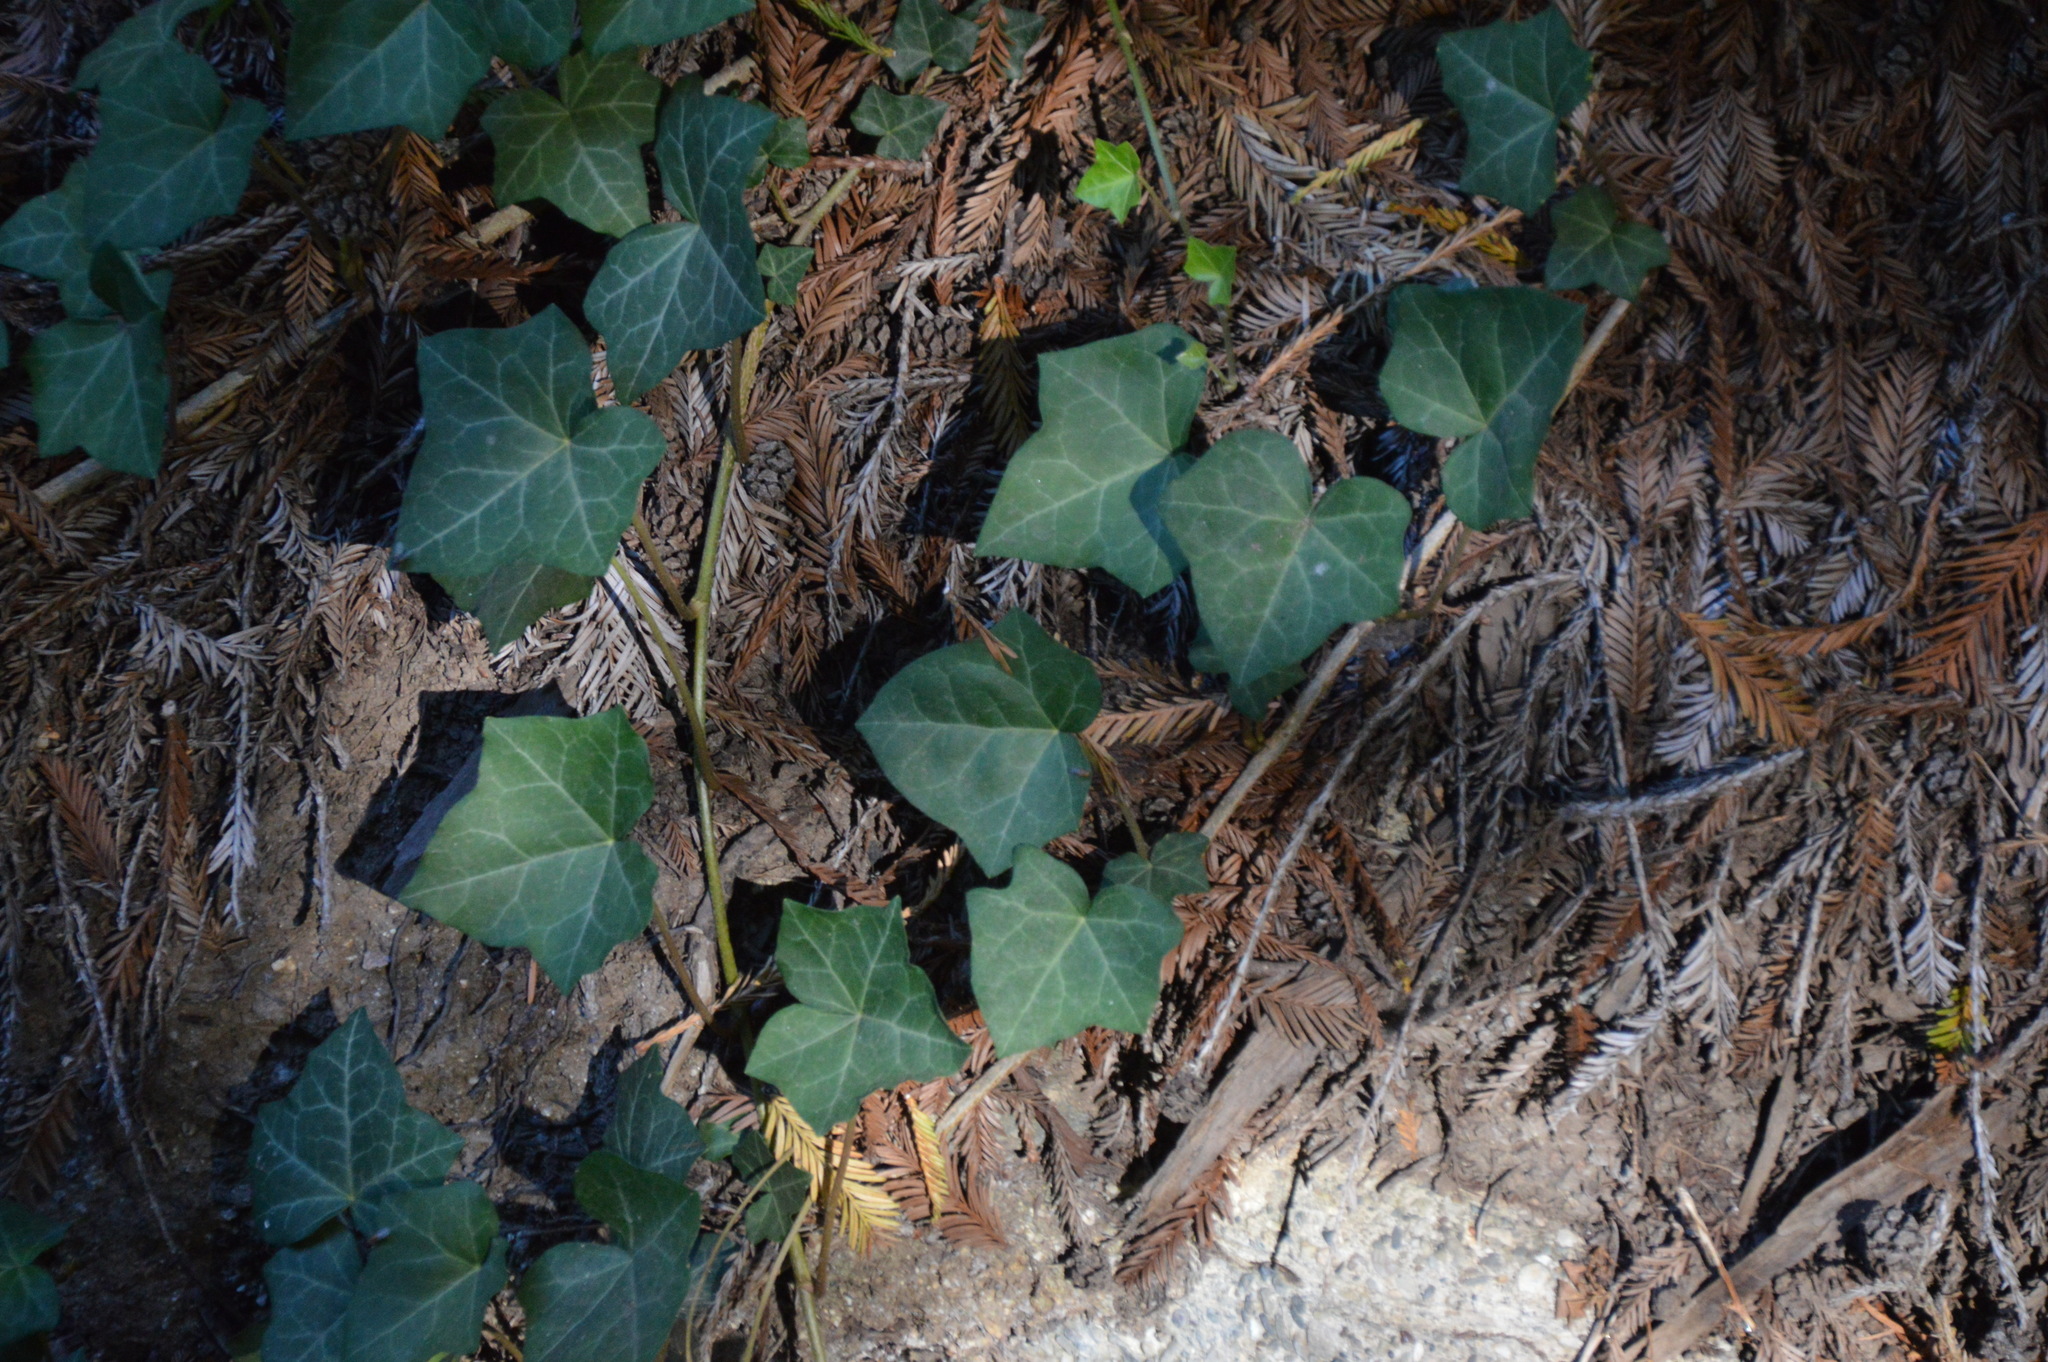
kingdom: Plantae
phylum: Tracheophyta
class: Magnoliopsida
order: Apiales
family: Araliaceae
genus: Hedera
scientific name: Hedera helix
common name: Ivy
